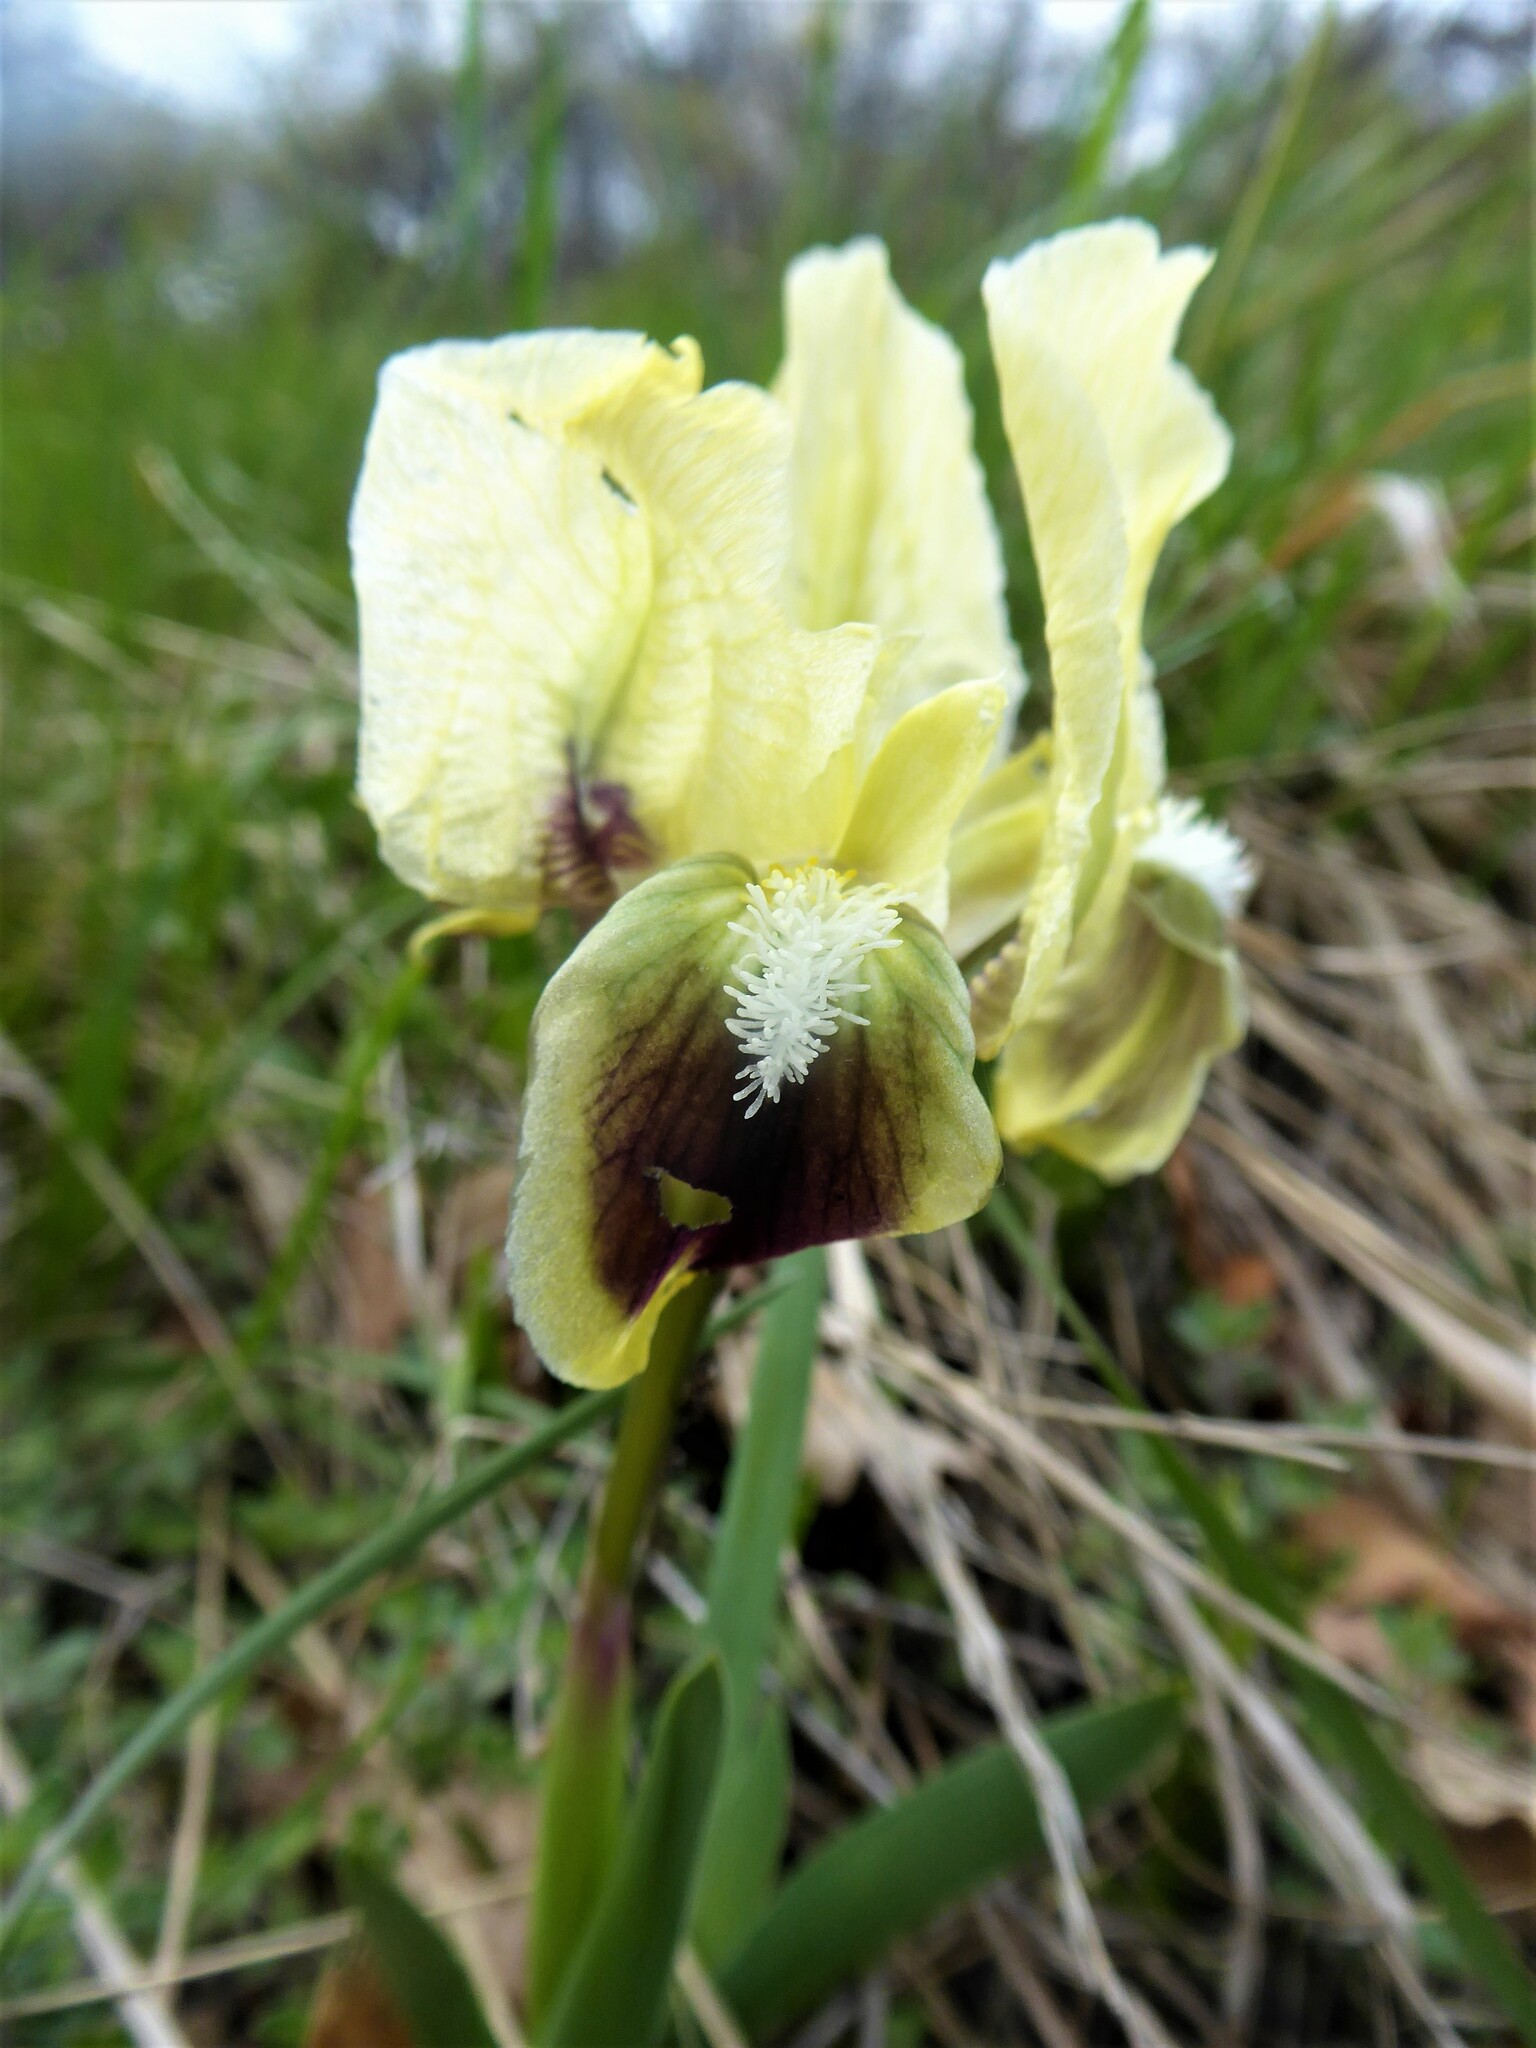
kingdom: Plantae
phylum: Tracheophyta
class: Liliopsida
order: Asparagales
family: Iridaceae
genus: Iris
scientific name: Iris pumila
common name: Dwarf iris
